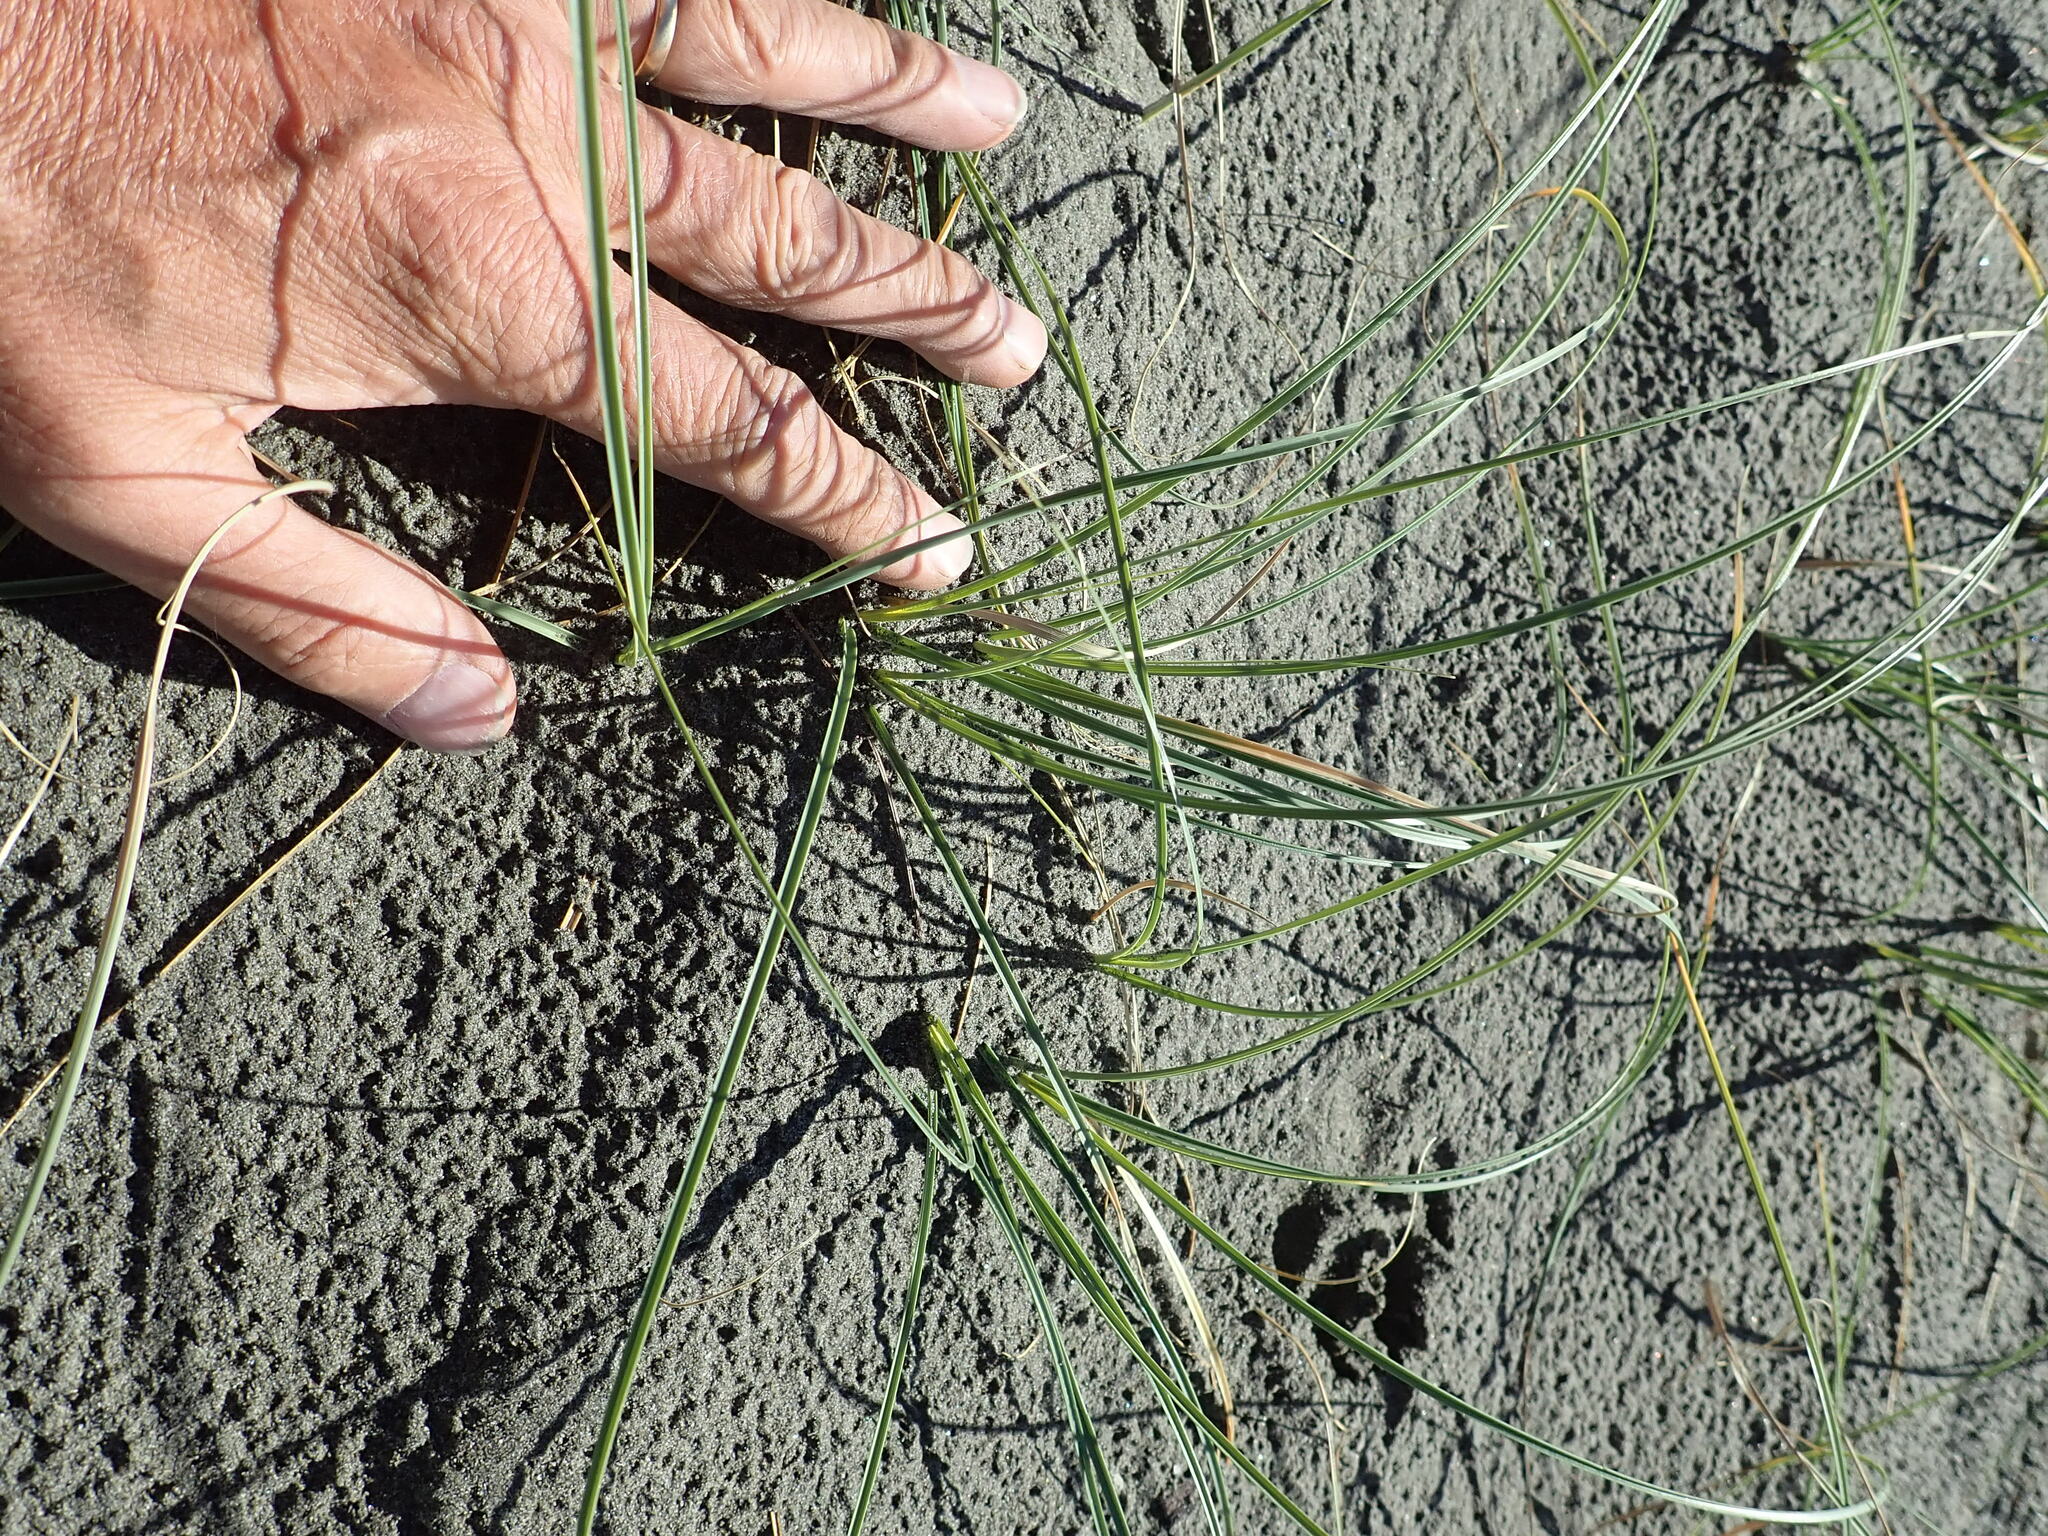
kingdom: Plantae
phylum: Tracheophyta
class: Liliopsida
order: Poales
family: Cyperaceae
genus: Carex
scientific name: Carex pumila
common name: Dwarf sedge
